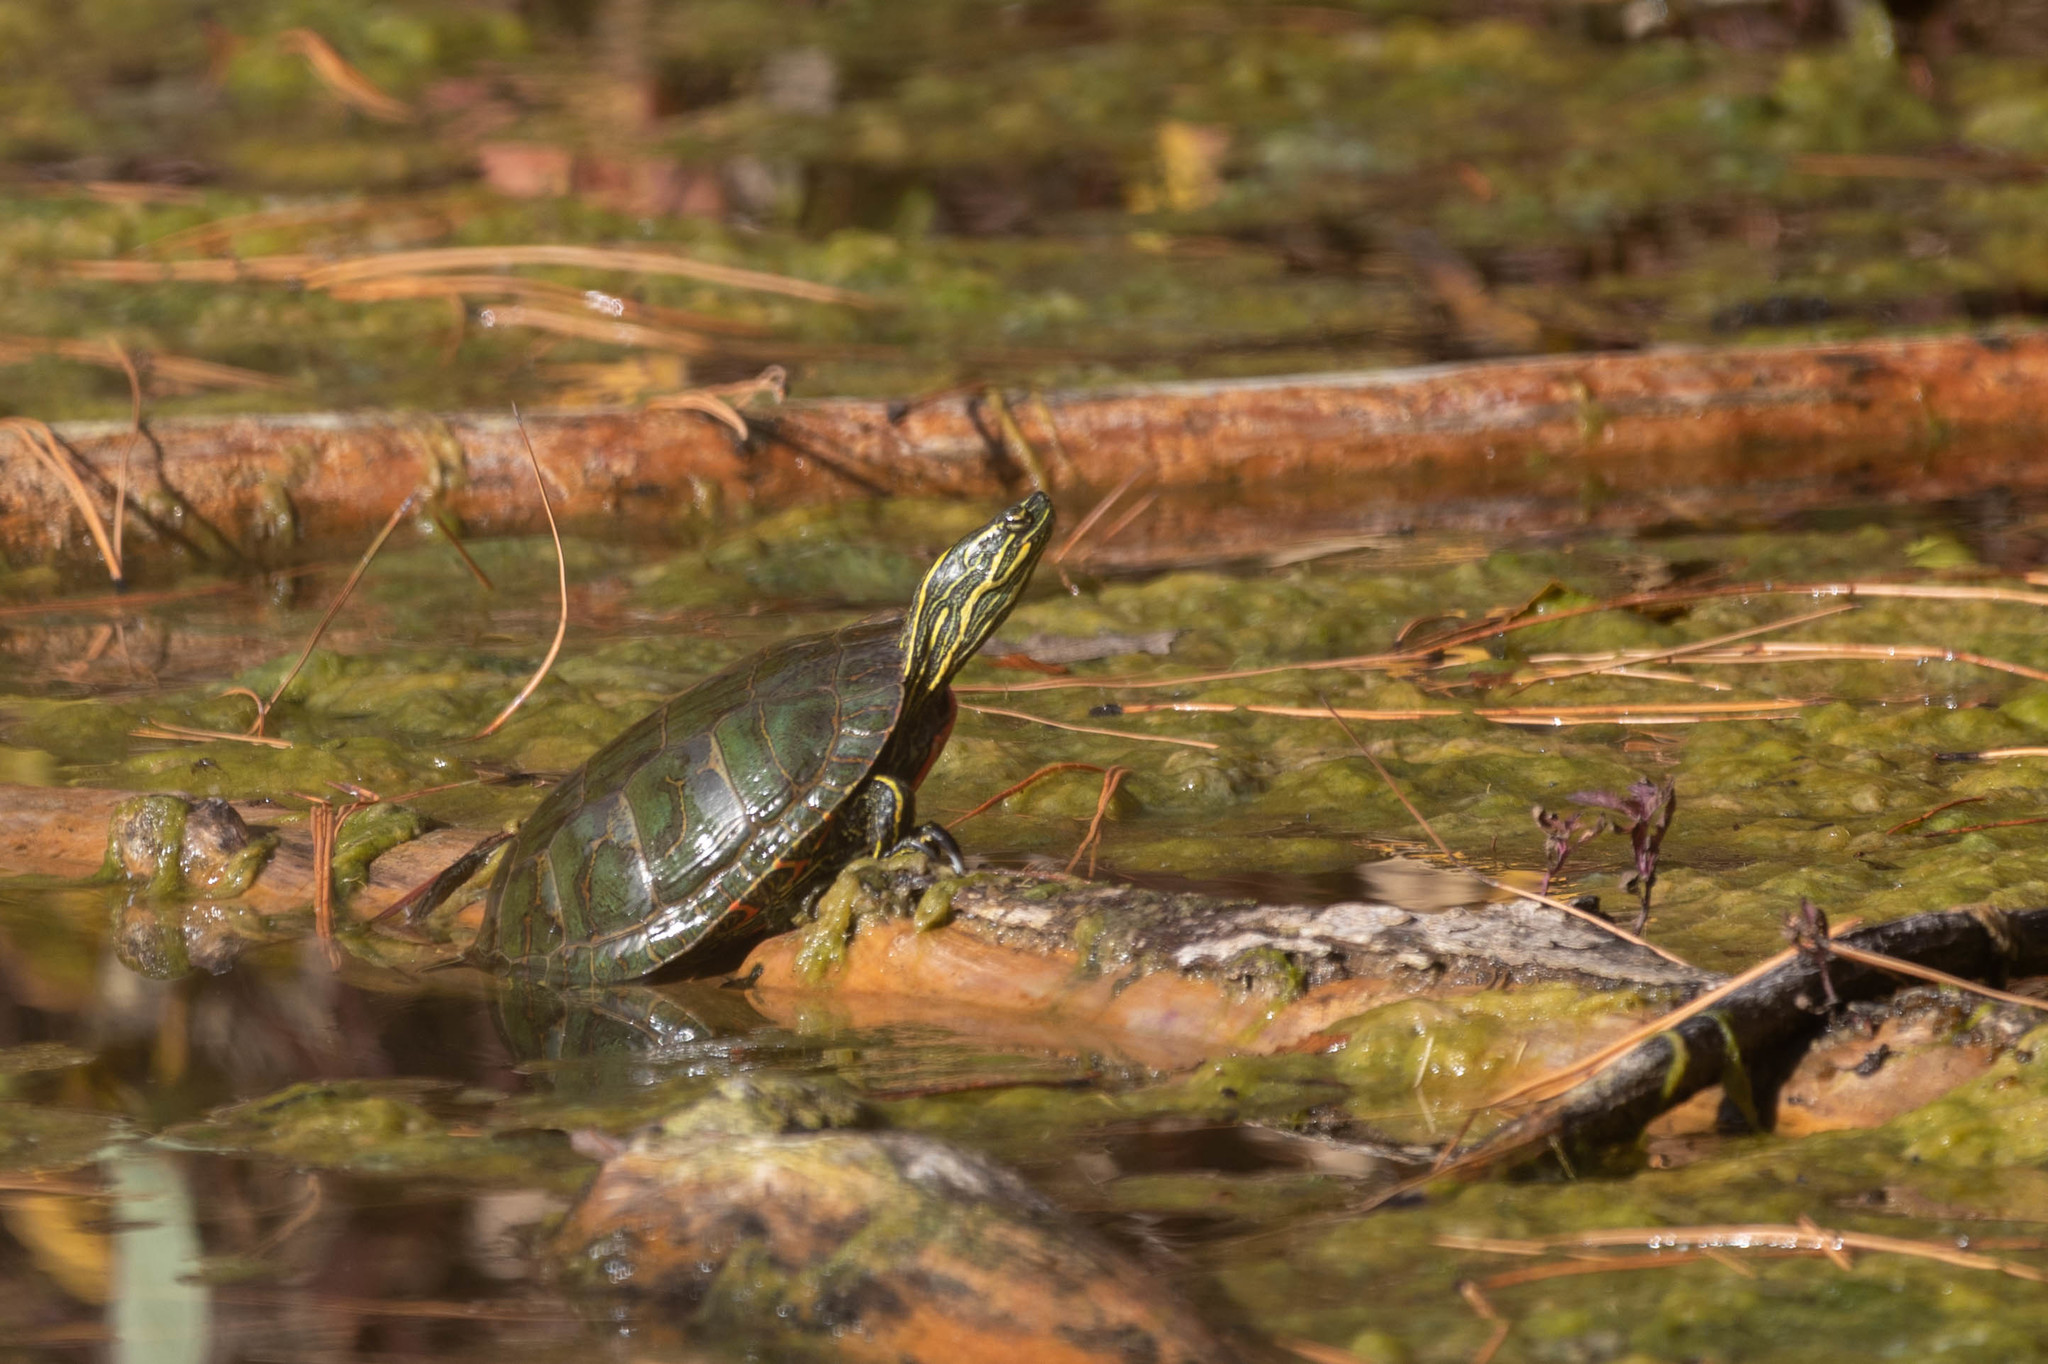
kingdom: Animalia
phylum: Chordata
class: Testudines
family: Emydidae
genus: Chrysemys
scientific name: Chrysemys picta
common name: Painted turtle
